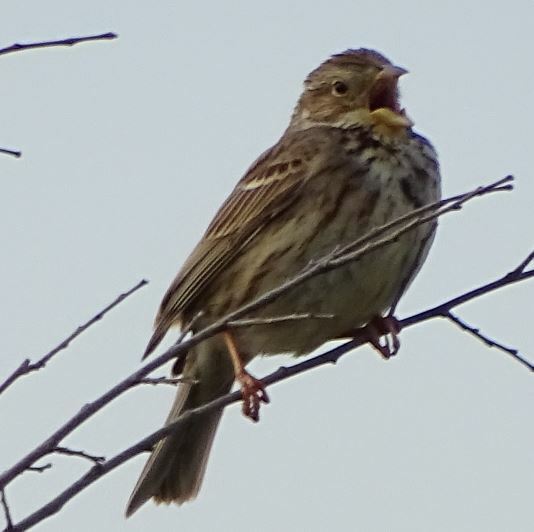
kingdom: Animalia
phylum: Chordata
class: Aves
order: Passeriformes
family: Emberizidae
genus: Emberiza
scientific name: Emberiza calandra
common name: Corn bunting
